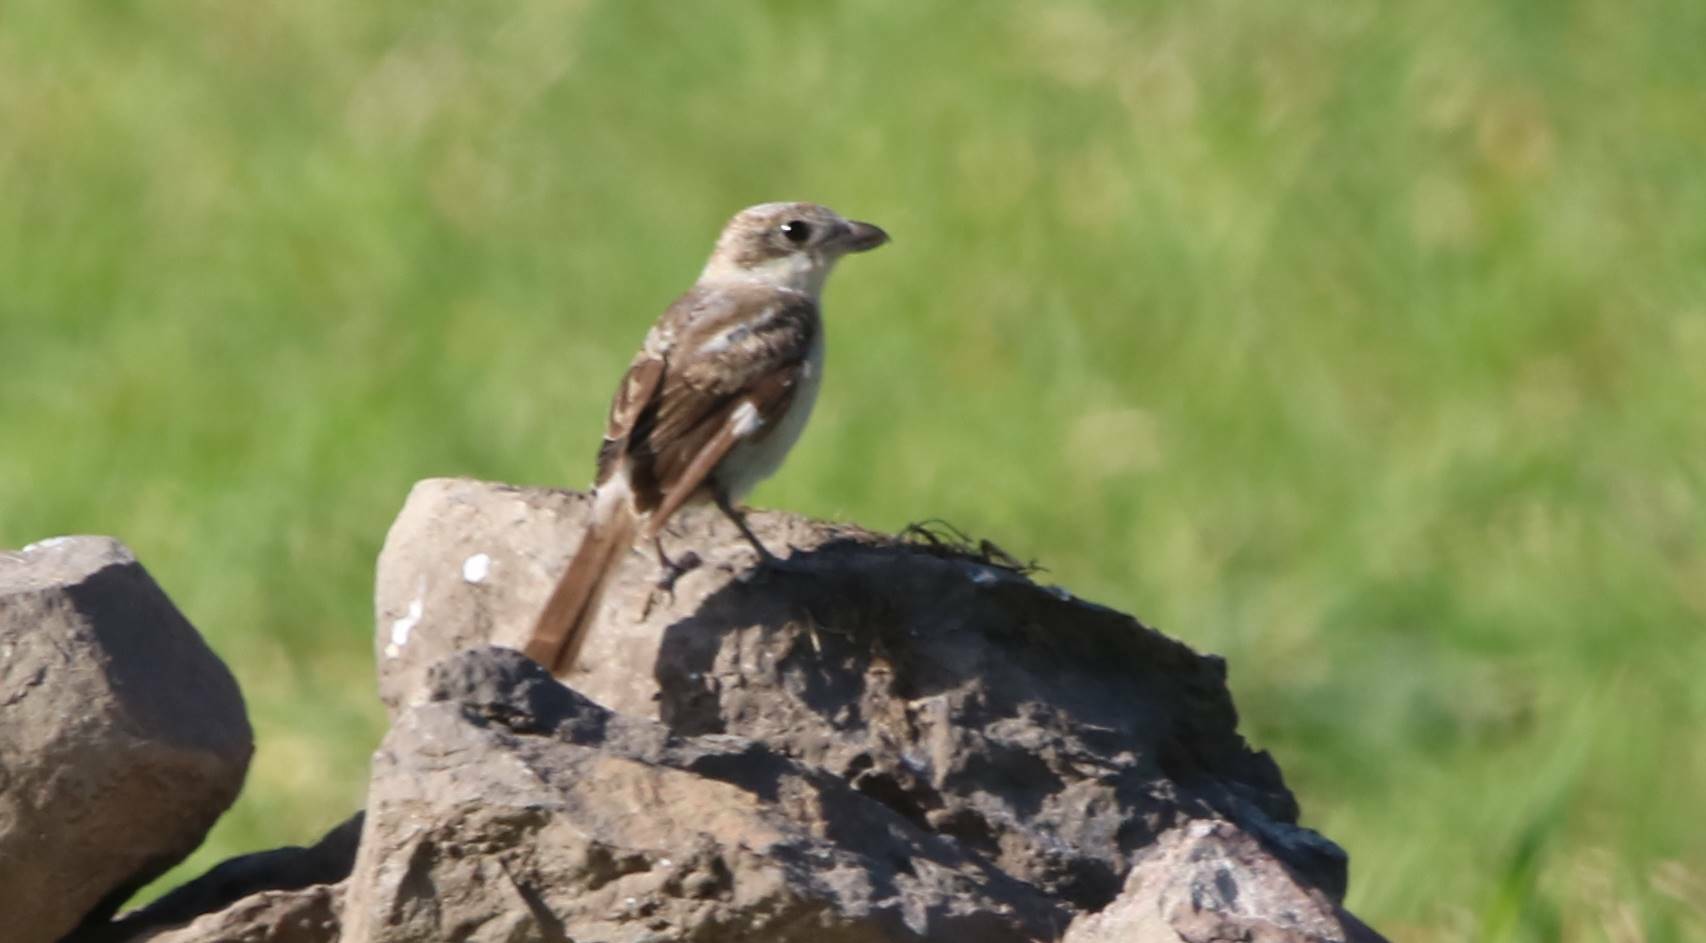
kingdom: Animalia
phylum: Chordata
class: Aves
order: Passeriformes
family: Laniidae
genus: Lanius
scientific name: Lanius senator
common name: Woodchat shrike
